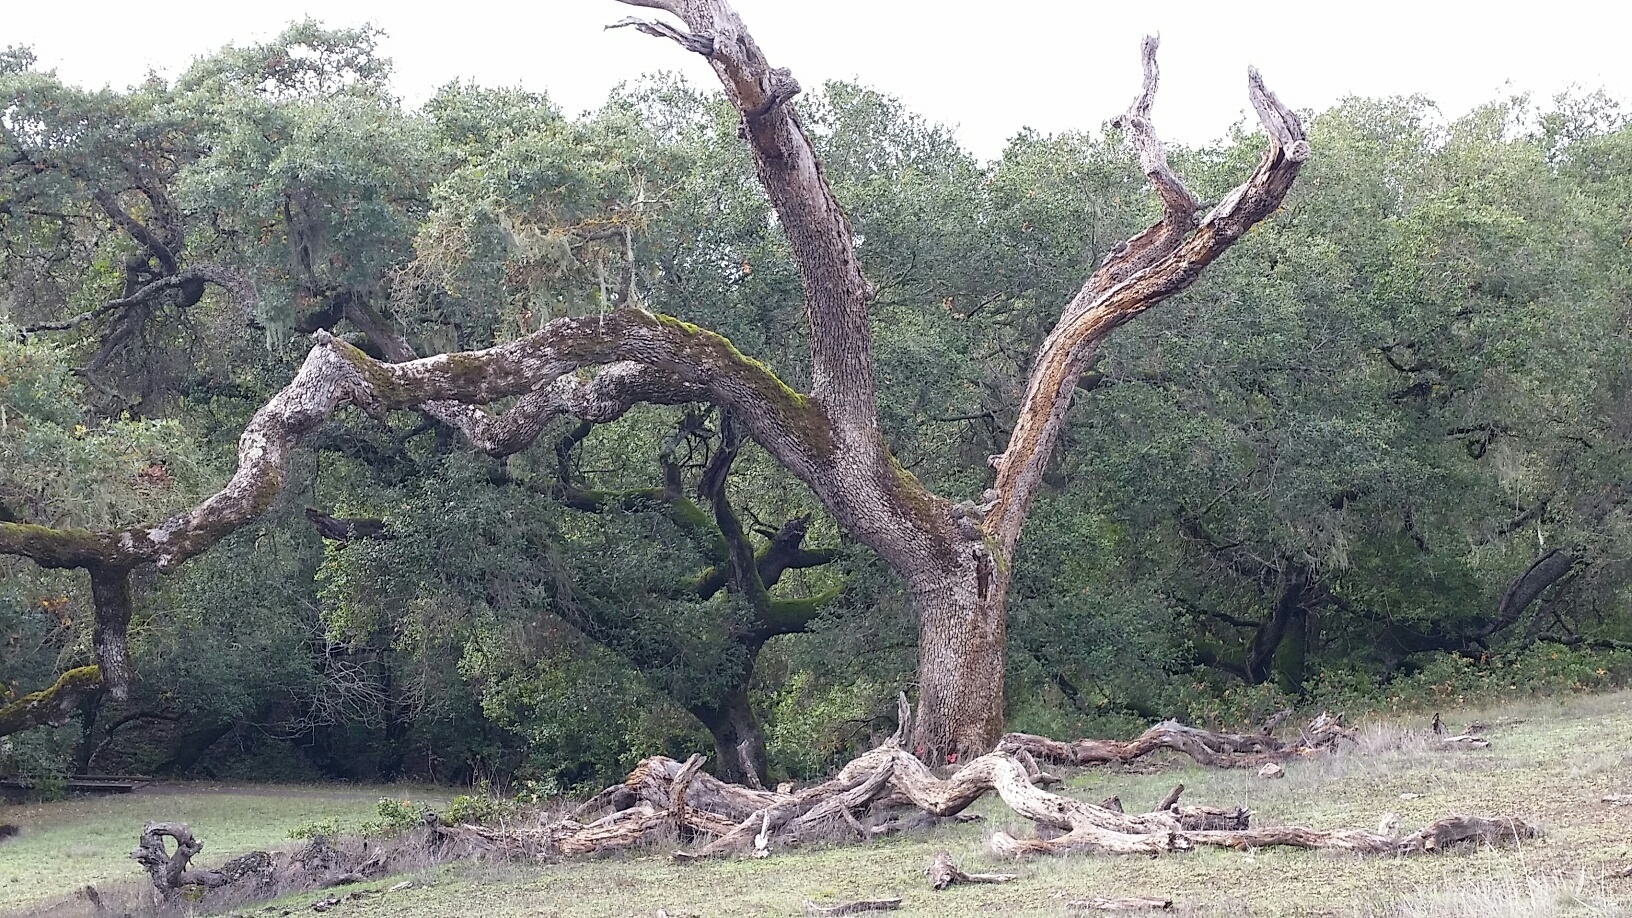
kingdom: Plantae
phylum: Tracheophyta
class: Magnoliopsida
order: Fagales
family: Fagaceae
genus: Quercus
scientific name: Quercus lobata
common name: Valley oak
